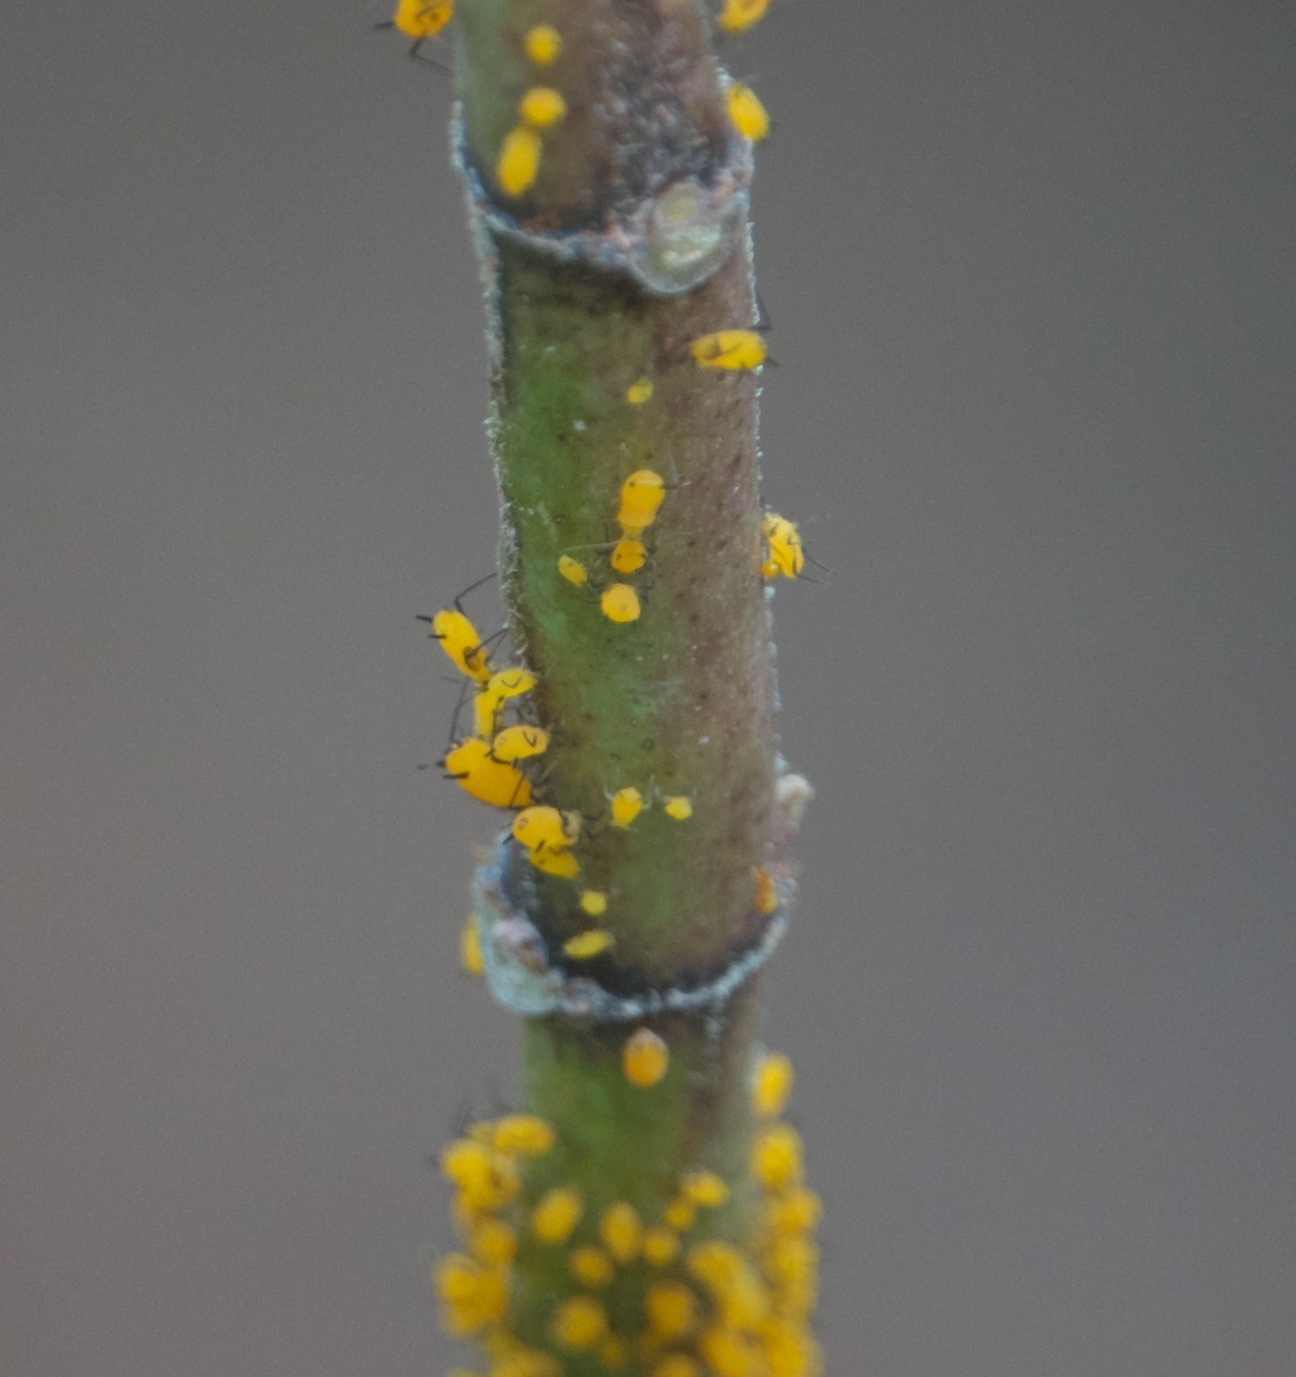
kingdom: Animalia
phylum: Arthropoda
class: Insecta
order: Hemiptera
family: Aphididae
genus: Aphis
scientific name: Aphis nerii
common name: Oleander aphid
